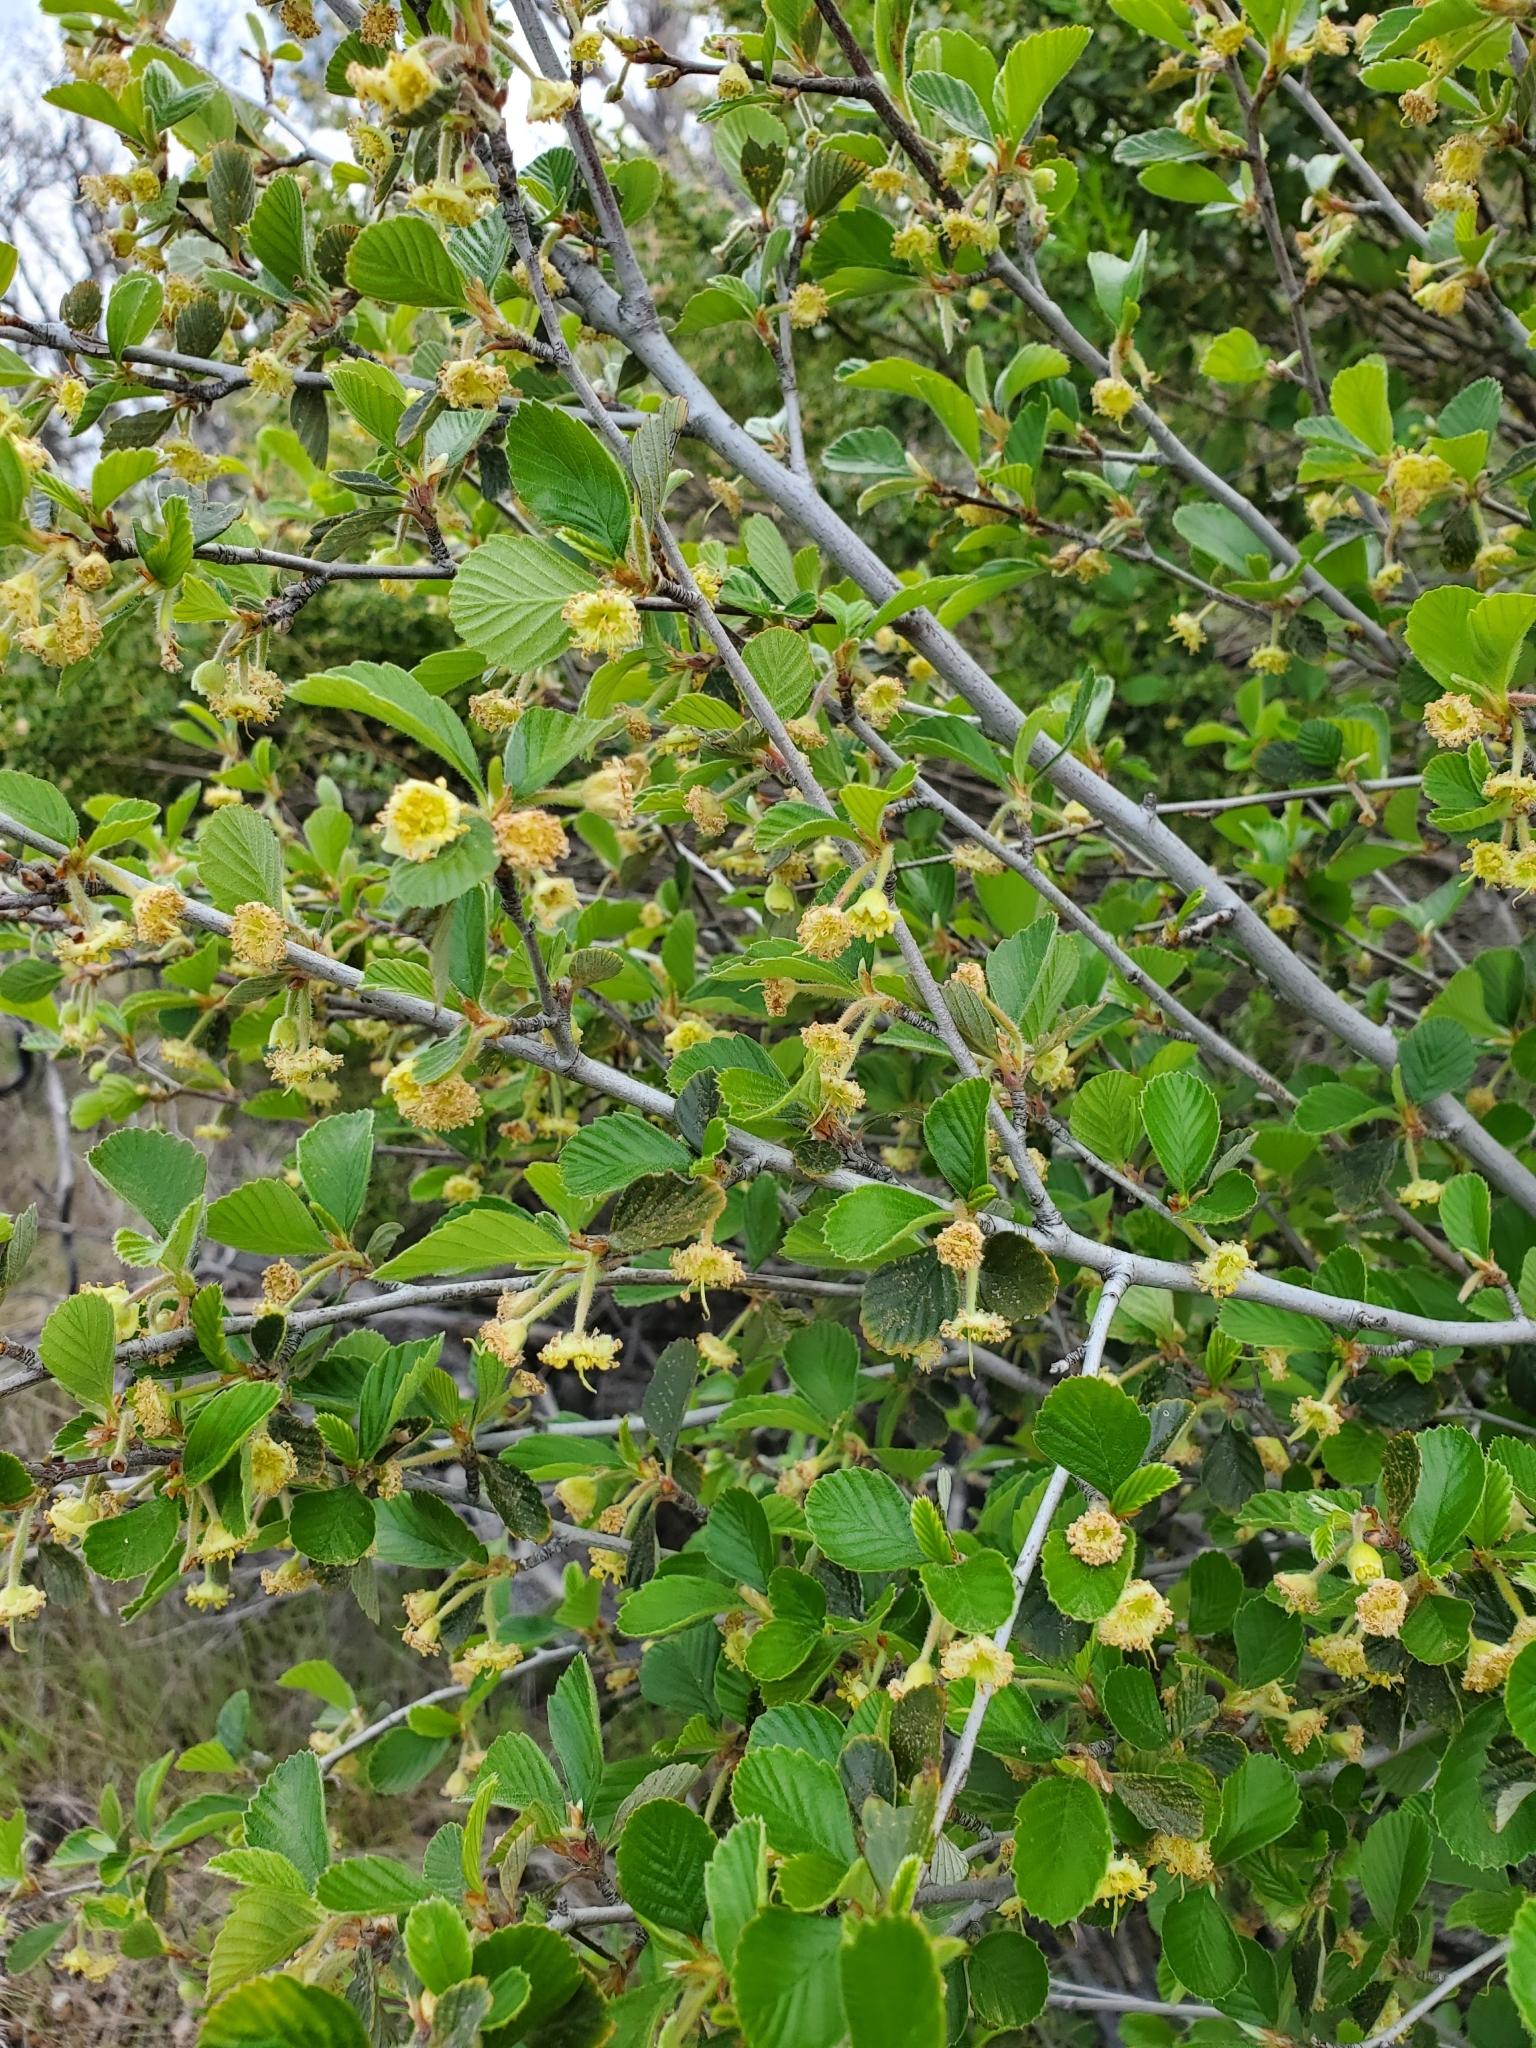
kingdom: Plantae
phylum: Tracheophyta
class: Magnoliopsida
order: Rosales
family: Rosaceae
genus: Cercocarpus
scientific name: Cercocarpus betuloides
